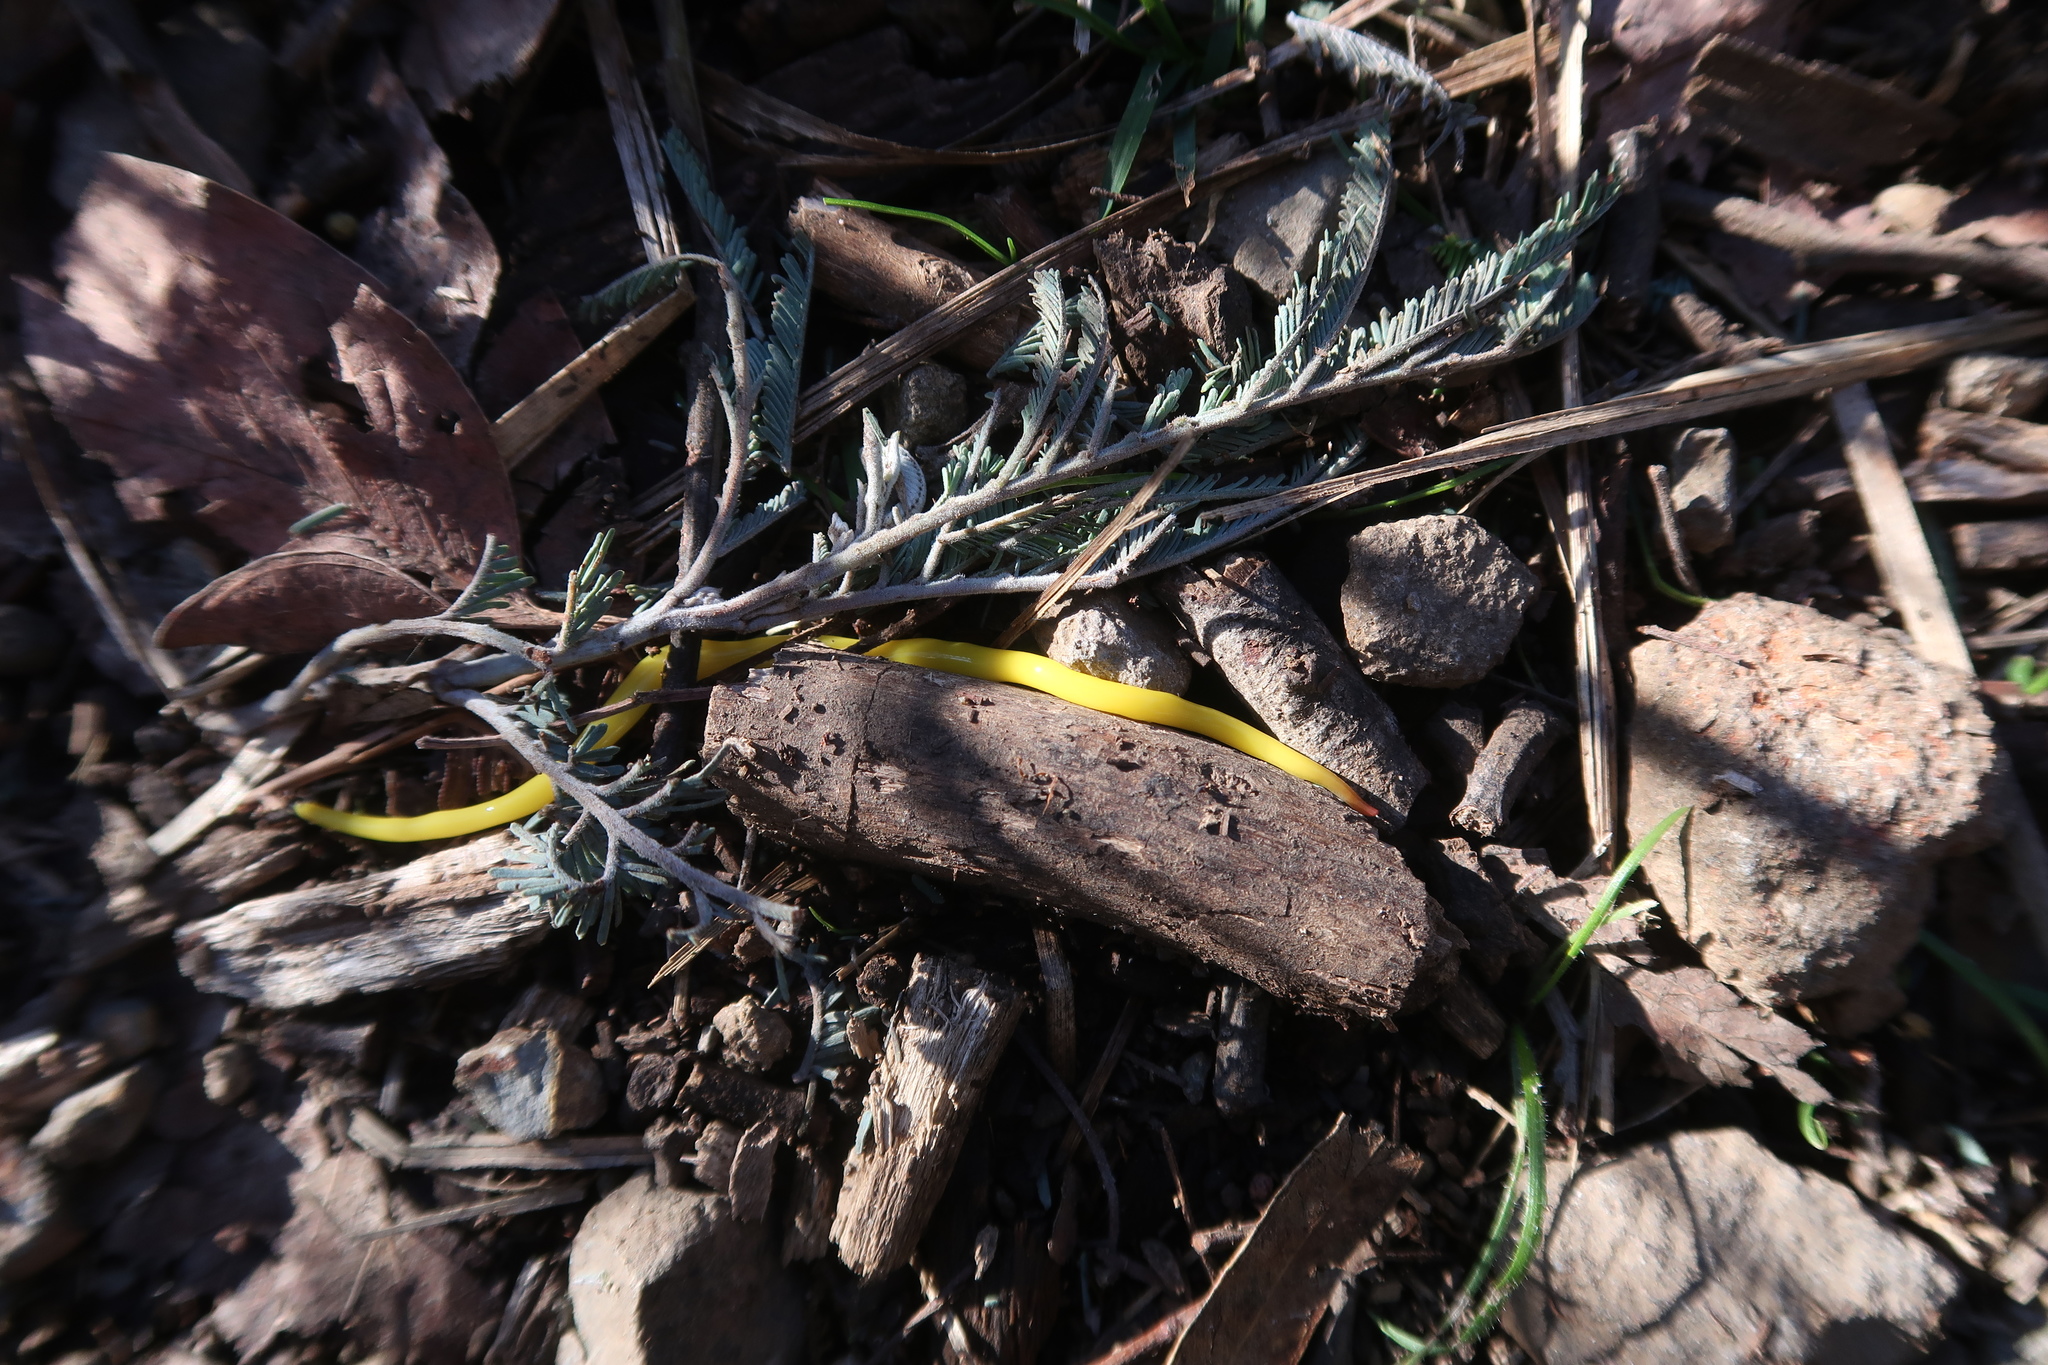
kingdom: Animalia
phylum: Platyhelminthes
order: Tricladida
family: Geoplanidae
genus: Fletchamia
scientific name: Fletchamia sugdeni
